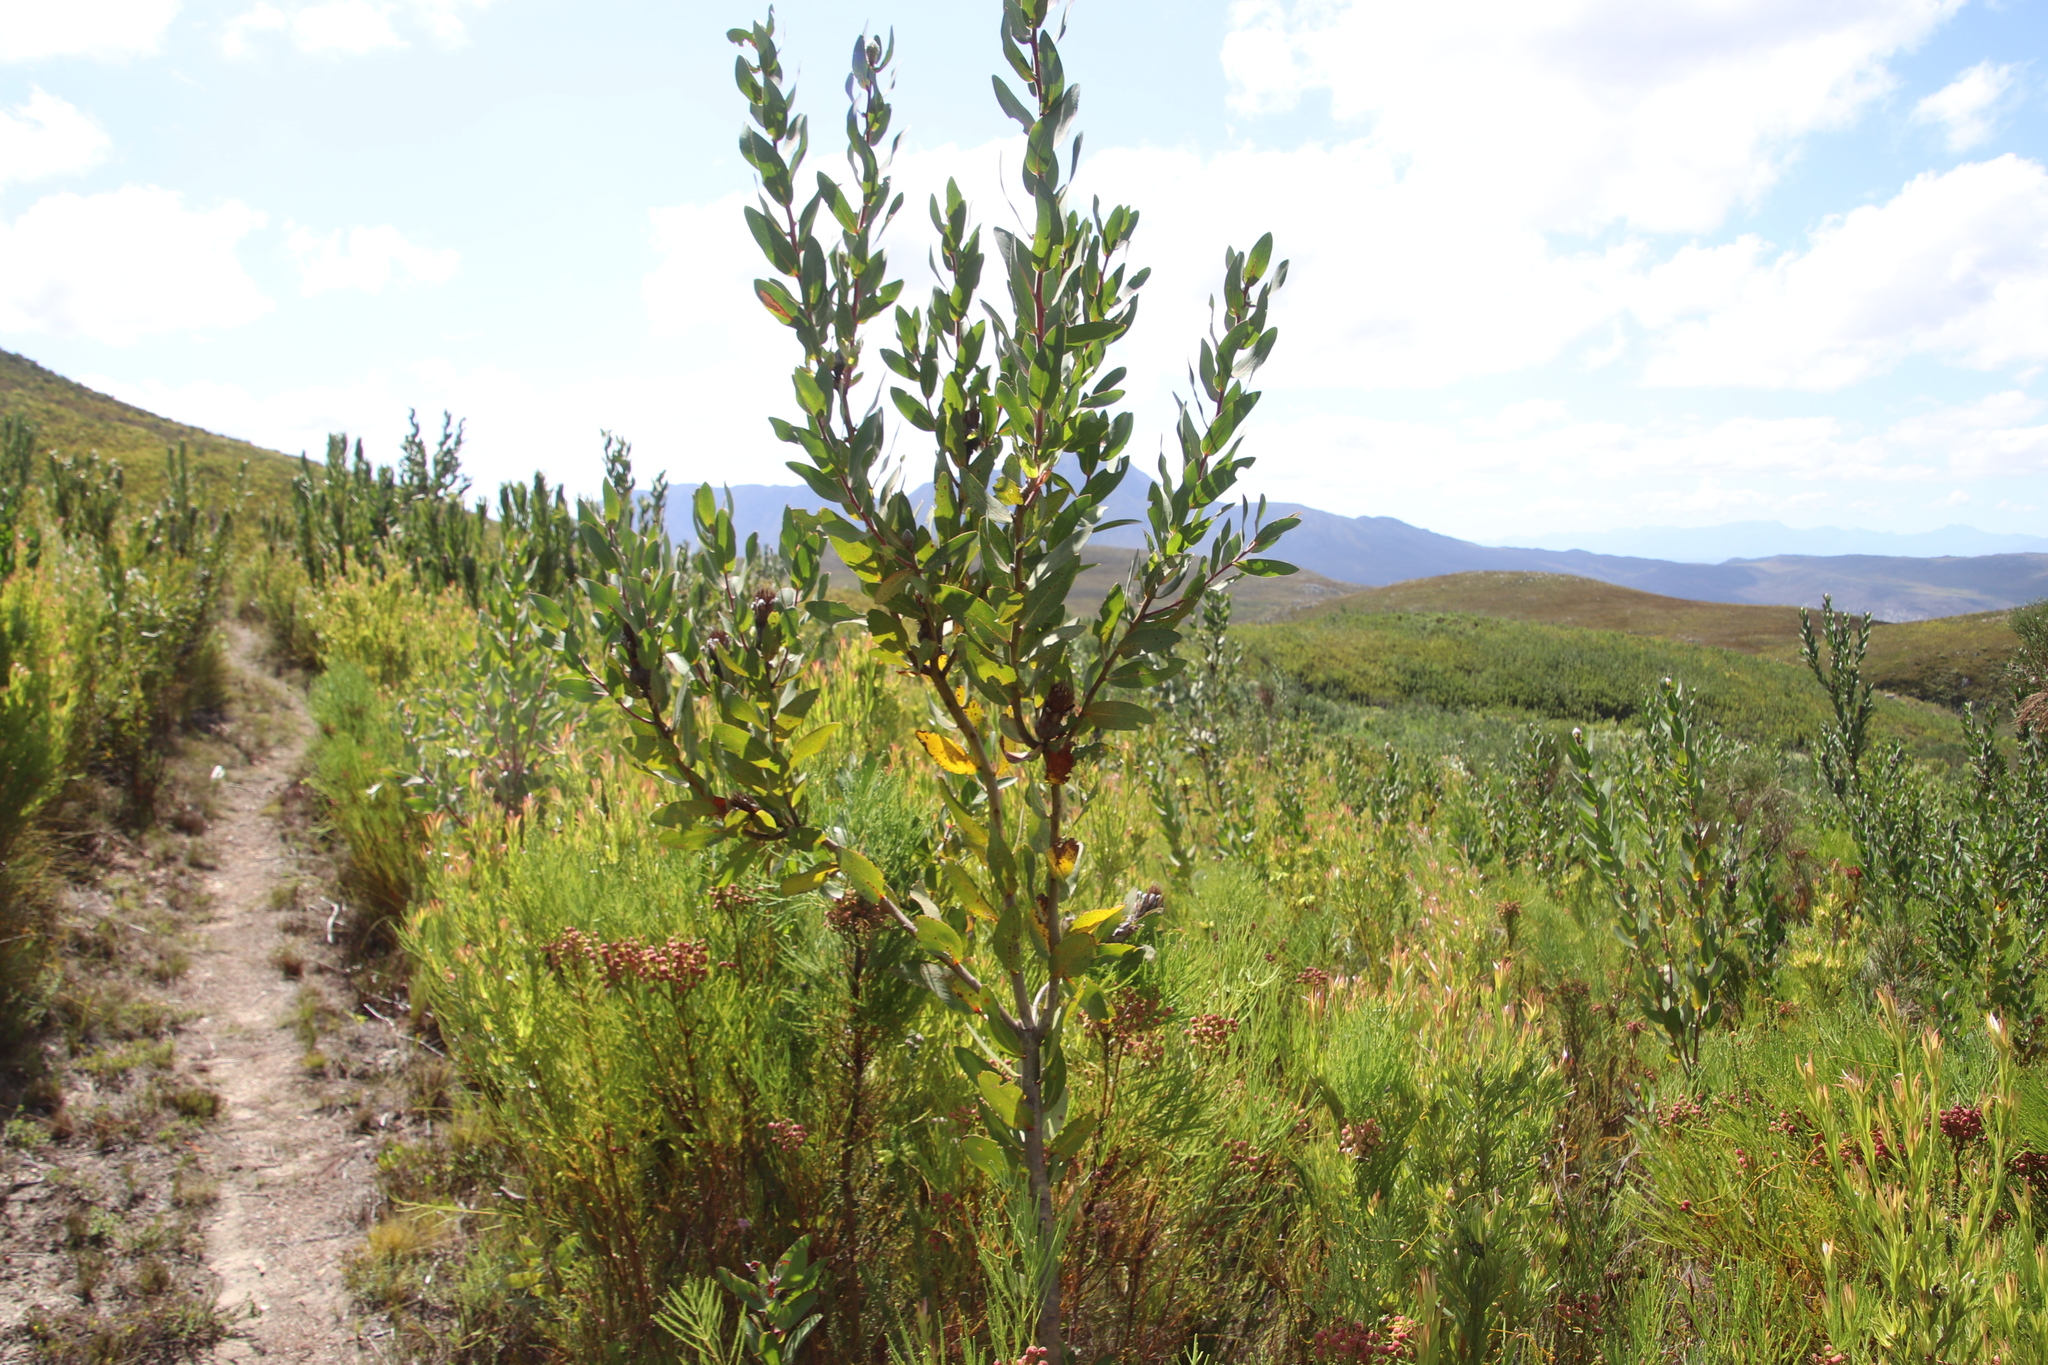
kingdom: Plantae
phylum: Tracheophyta
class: Magnoliopsida
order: Proteales
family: Proteaceae
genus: Protea
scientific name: Protea mundii
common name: Forest sugarbush
